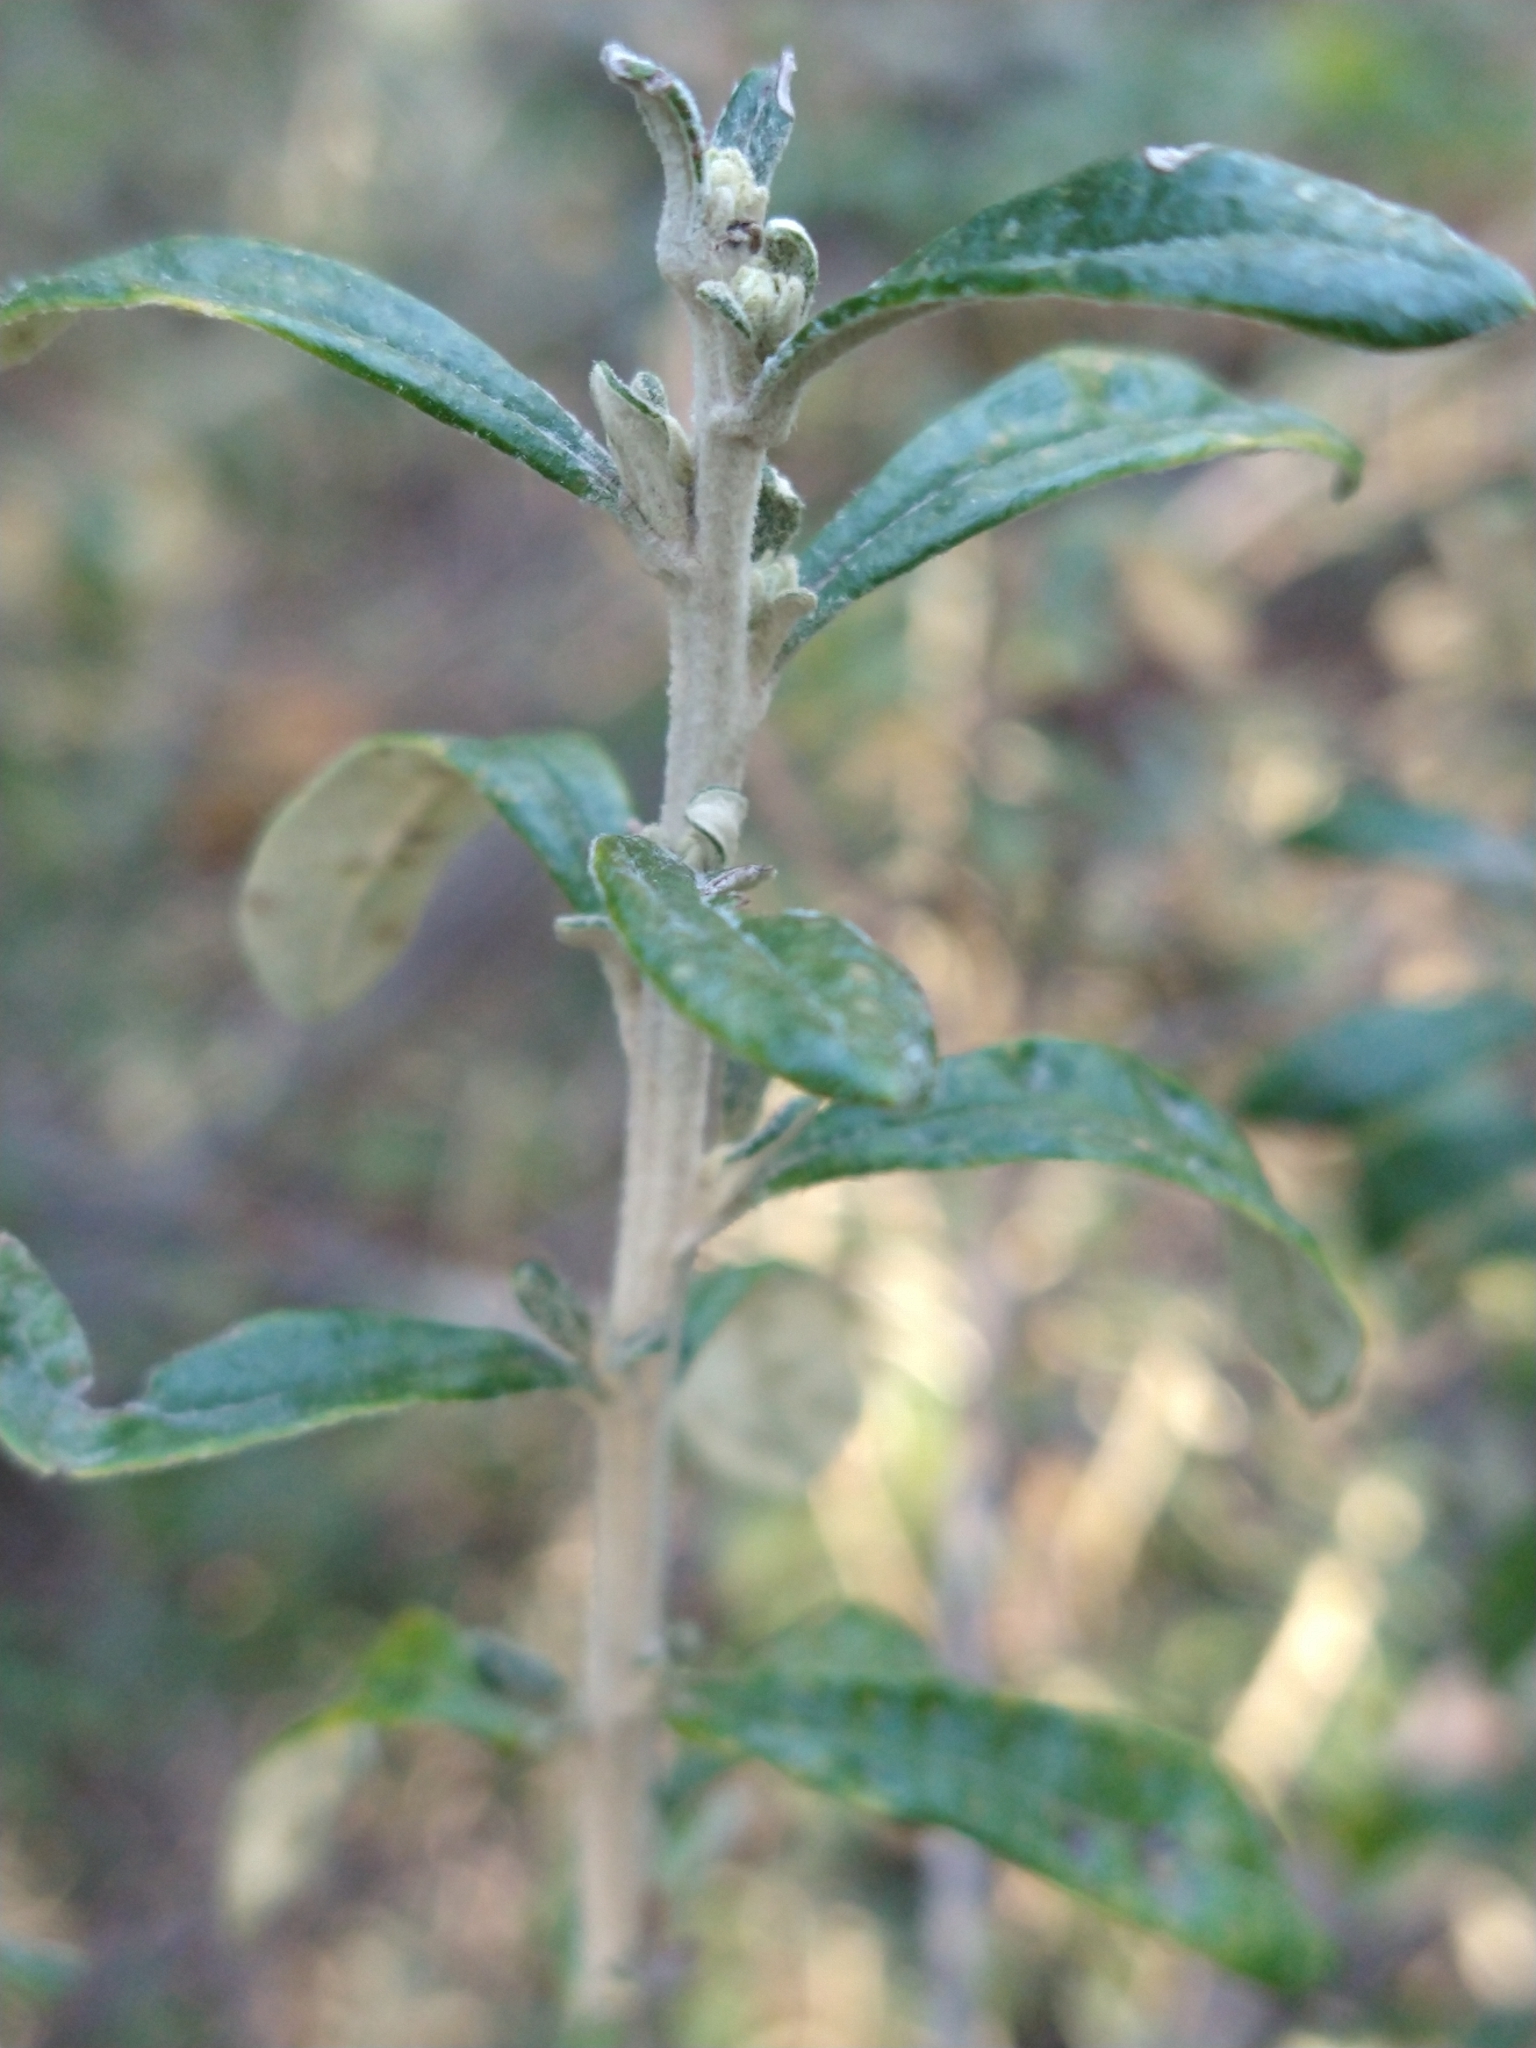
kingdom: Plantae
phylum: Tracheophyta
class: Magnoliopsida
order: Asterales
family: Asteraceae
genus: Chiliotrichum
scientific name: Chiliotrichum diffusum
